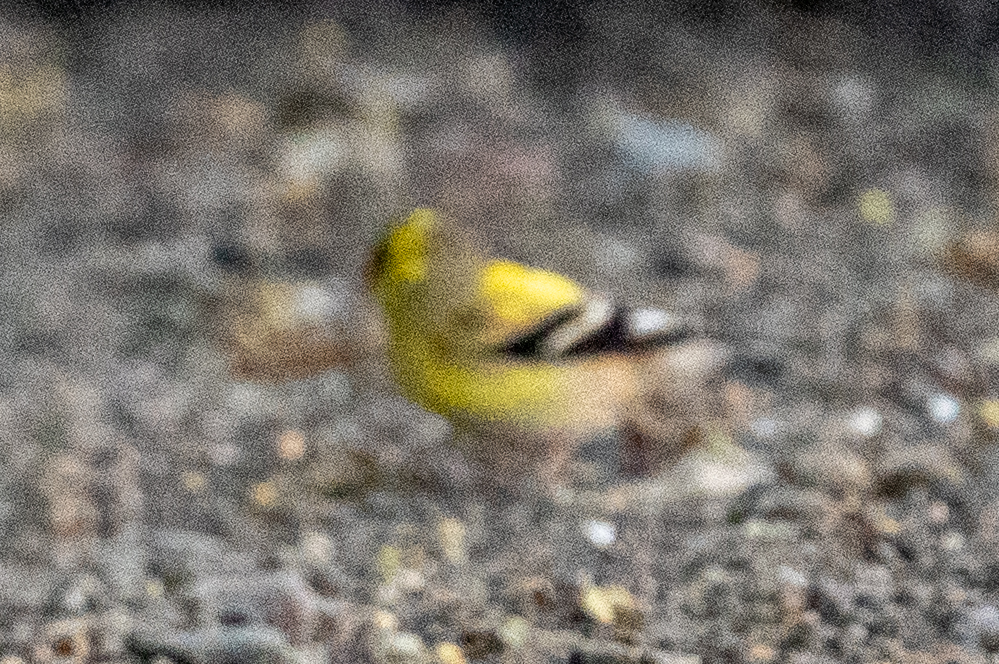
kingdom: Animalia
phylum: Chordata
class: Aves
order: Passeriformes
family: Fringillidae
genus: Spinus
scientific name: Spinus tristis
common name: American goldfinch
